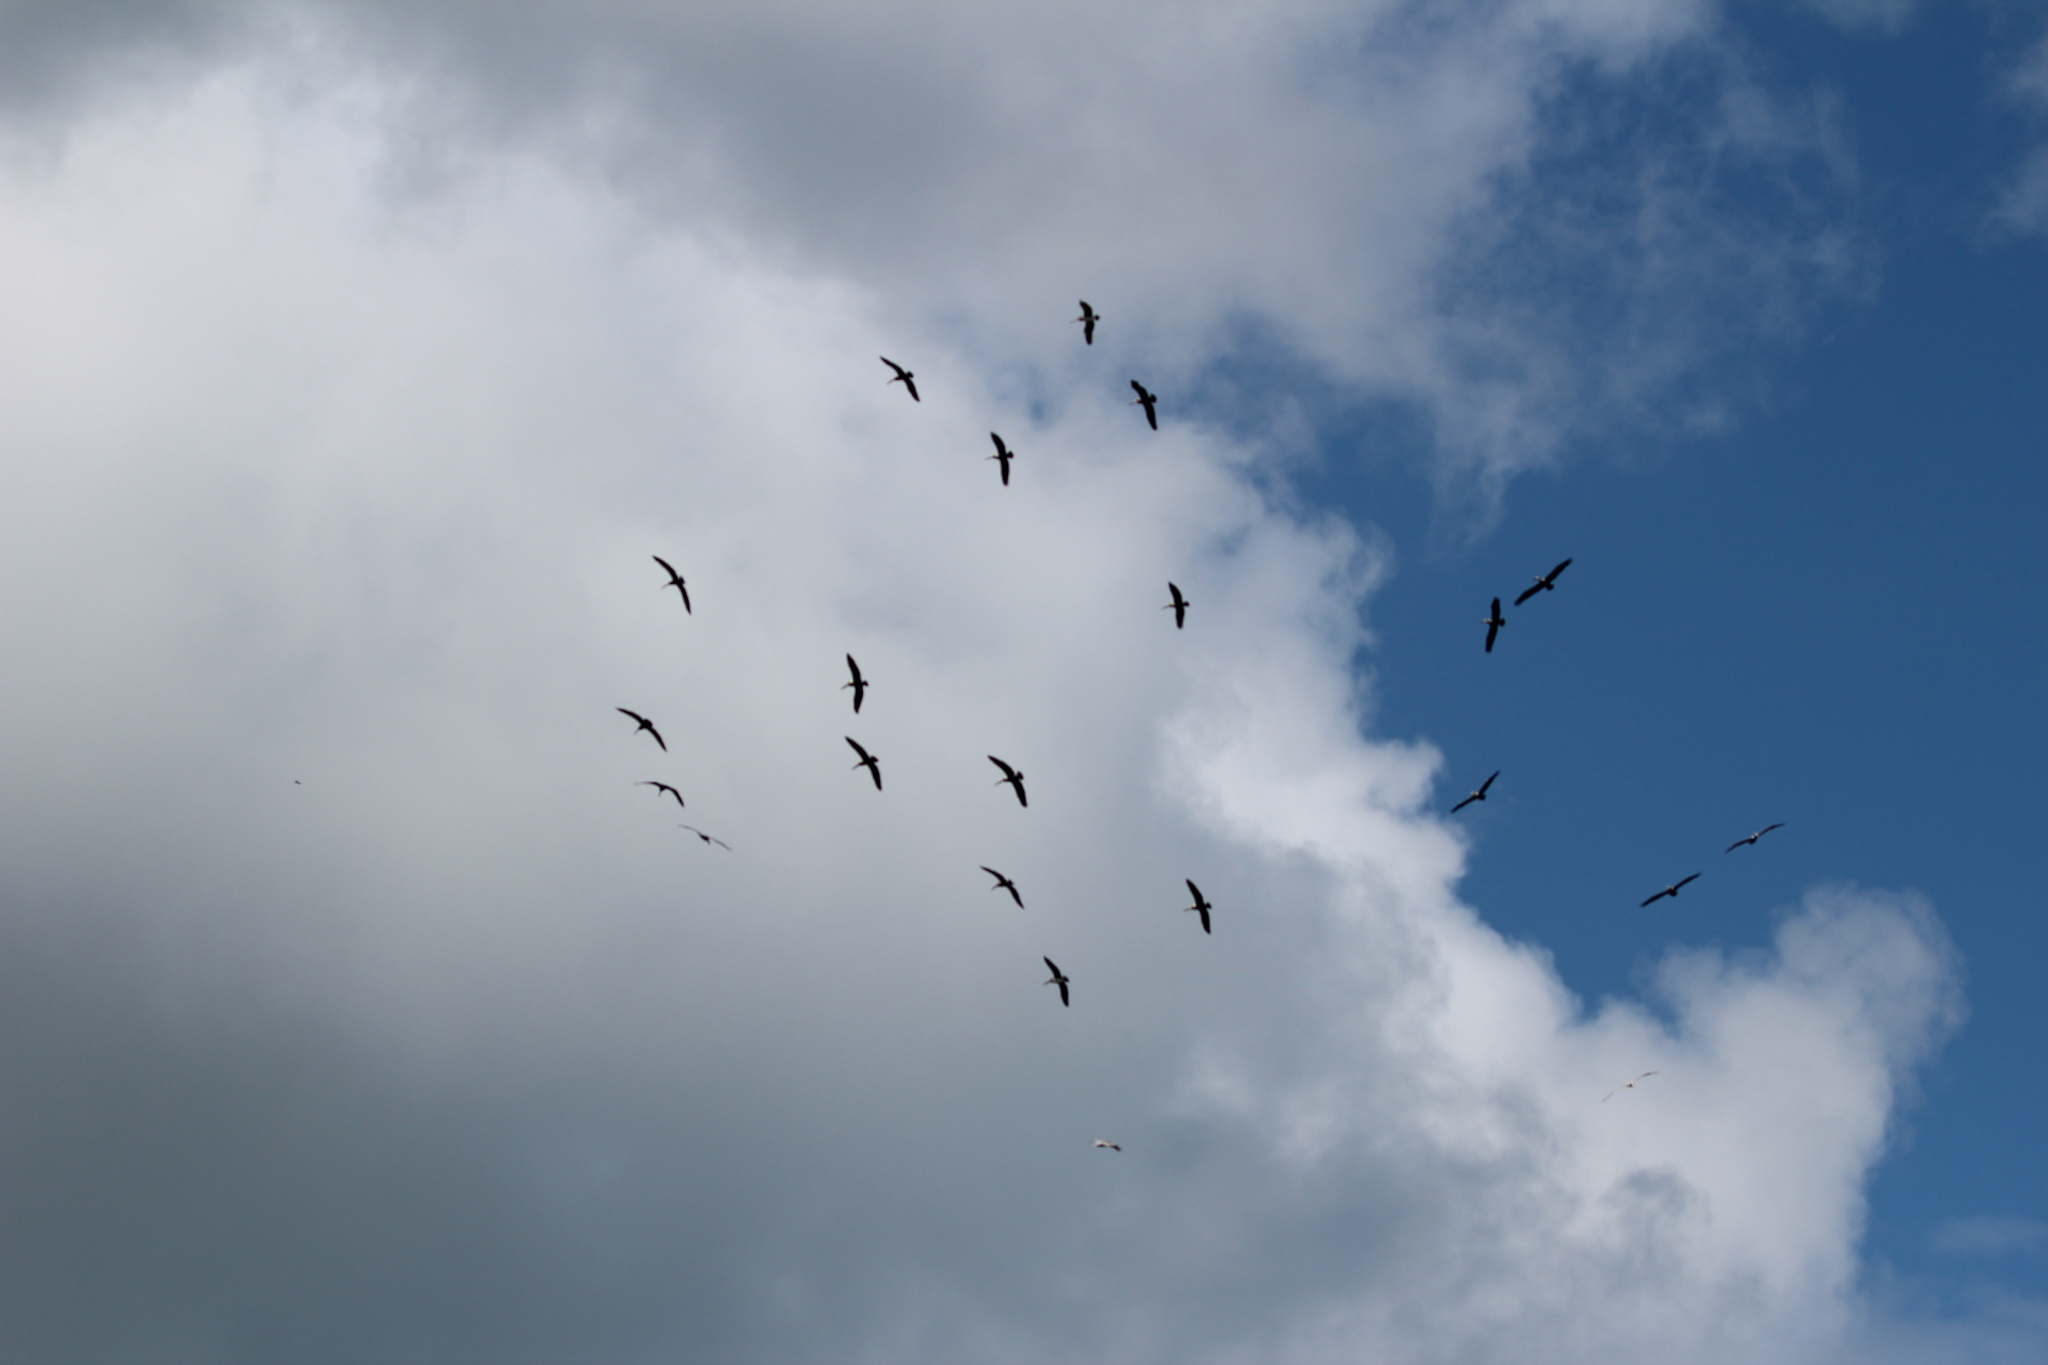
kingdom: Animalia
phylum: Chordata
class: Aves
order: Pelecaniformes
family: Pelecanidae
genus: Pelecanus
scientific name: Pelecanus occidentalis
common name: Brown pelican
